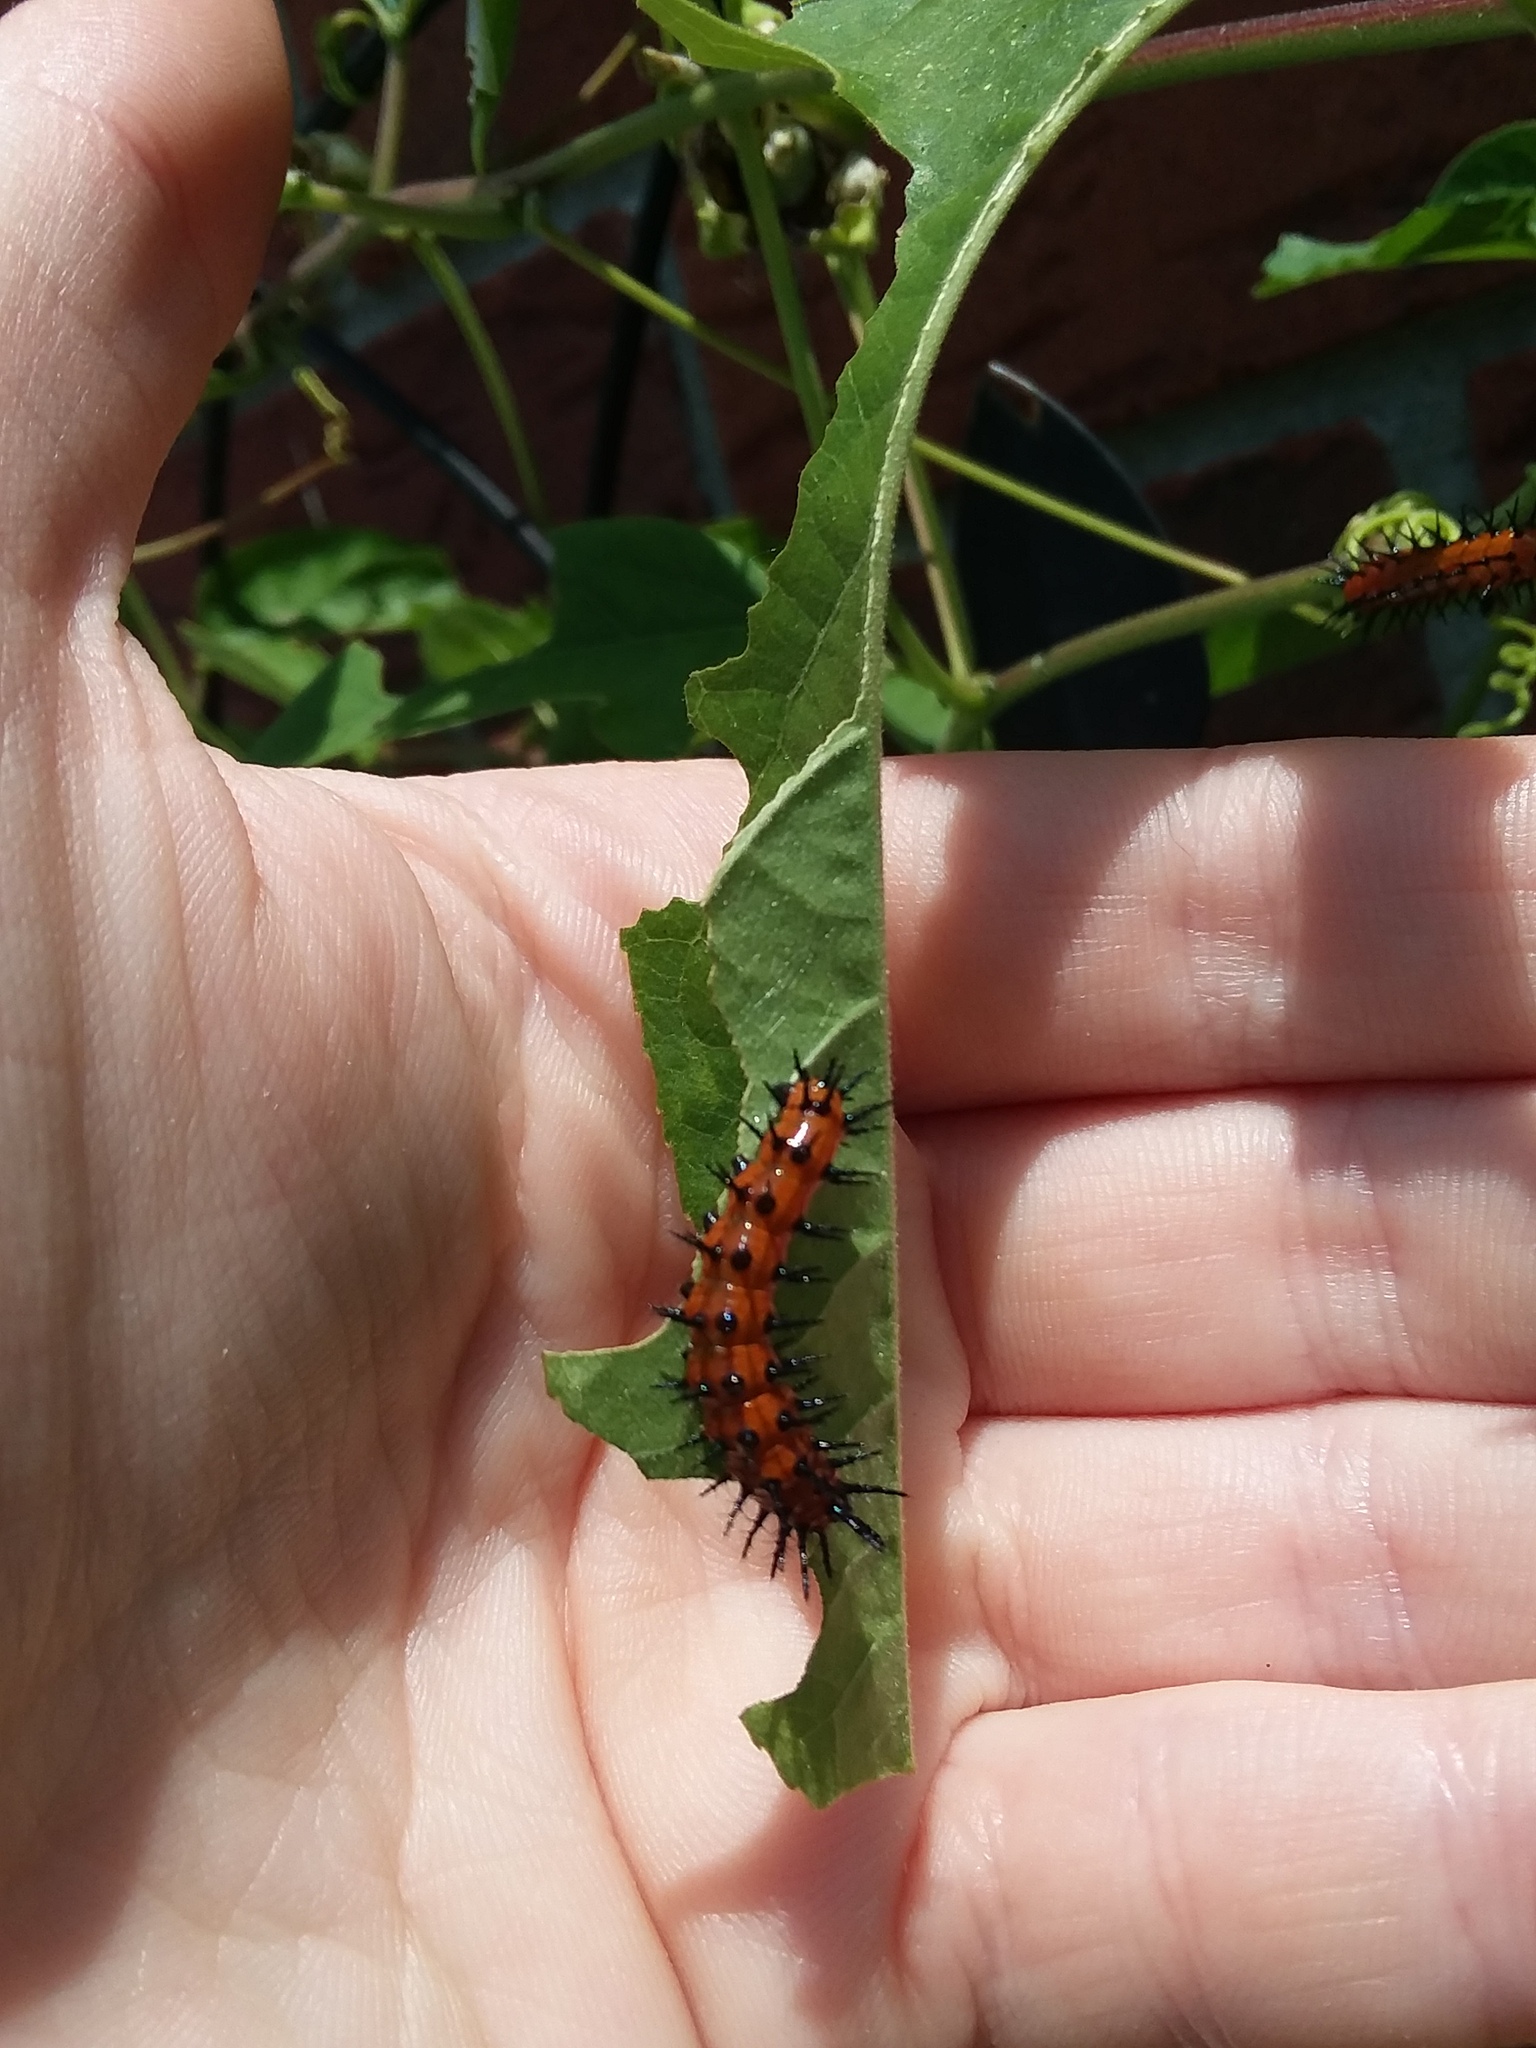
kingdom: Animalia
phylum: Arthropoda
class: Insecta
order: Lepidoptera
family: Nymphalidae
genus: Dione
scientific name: Dione vanillae
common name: Gulf fritillary
